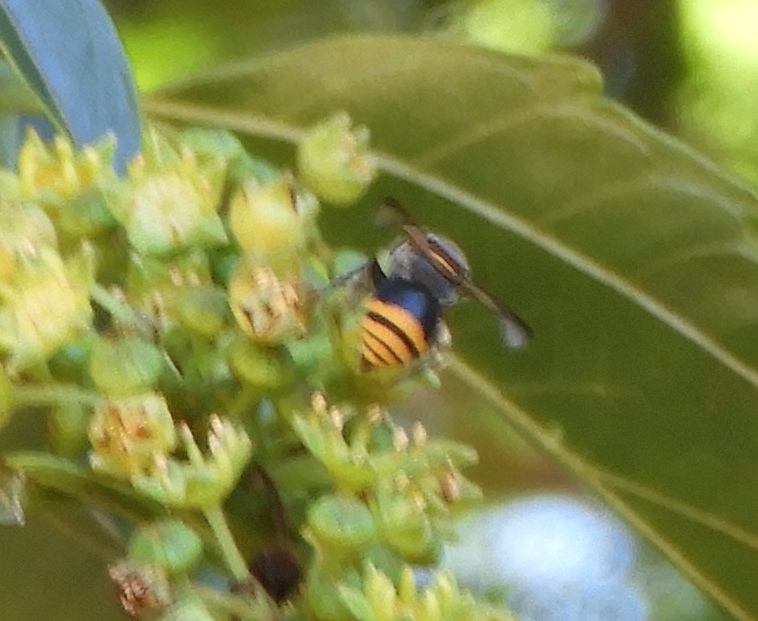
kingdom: Animalia
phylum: Arthropoda
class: Insecta
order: Hymenoptera
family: Vespidae
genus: Brachygastra
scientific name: Brachygastra azteca
